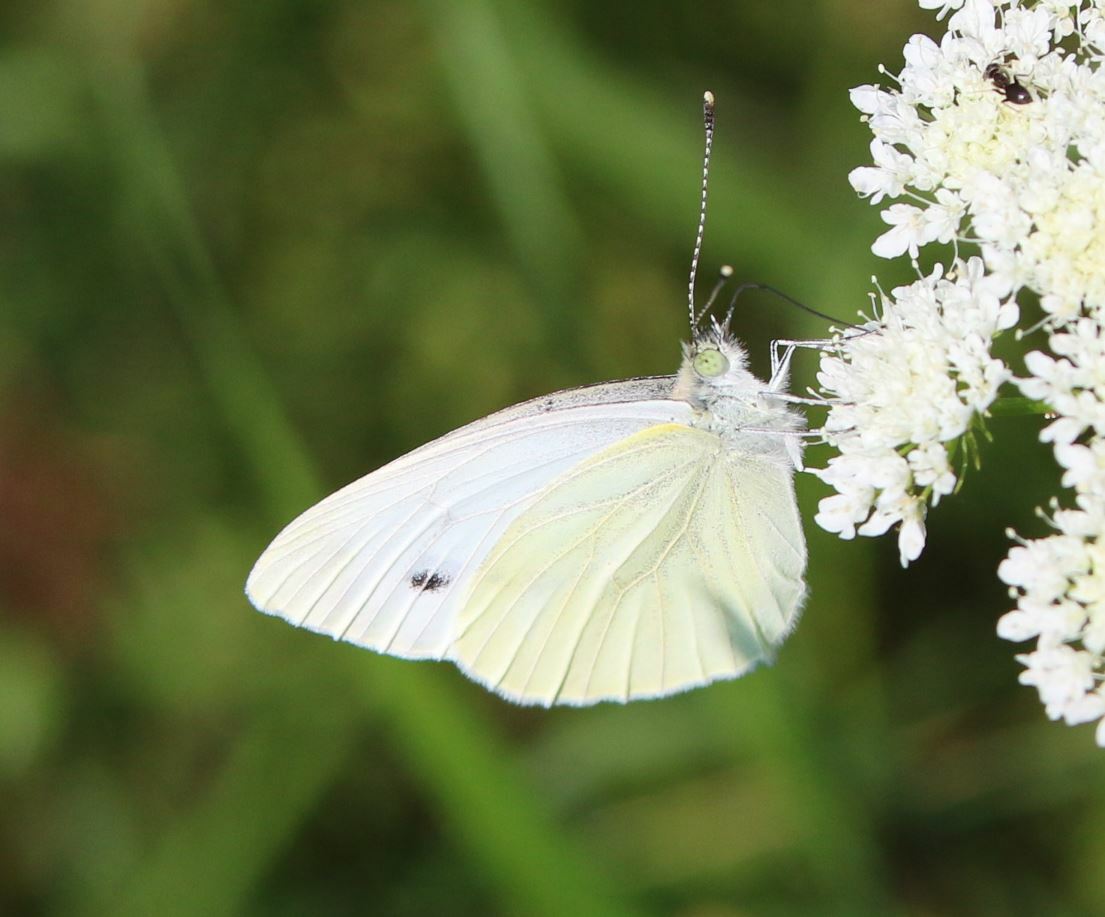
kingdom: Animalia
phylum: Arthropoda
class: Insecta
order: Lepidoptera
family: Pieridae
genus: Pieris
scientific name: Pieris rapae
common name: Small white
